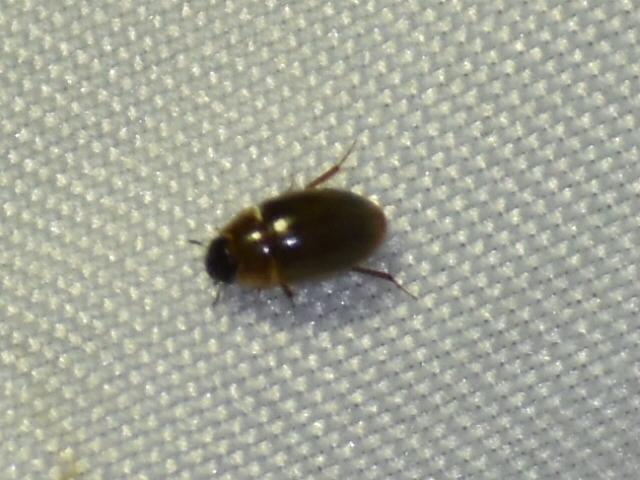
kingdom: Animalia
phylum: Arthropoda
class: Insecta
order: Coleoptera
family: Hydrophilidae
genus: Enochrus
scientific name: Enochrus
